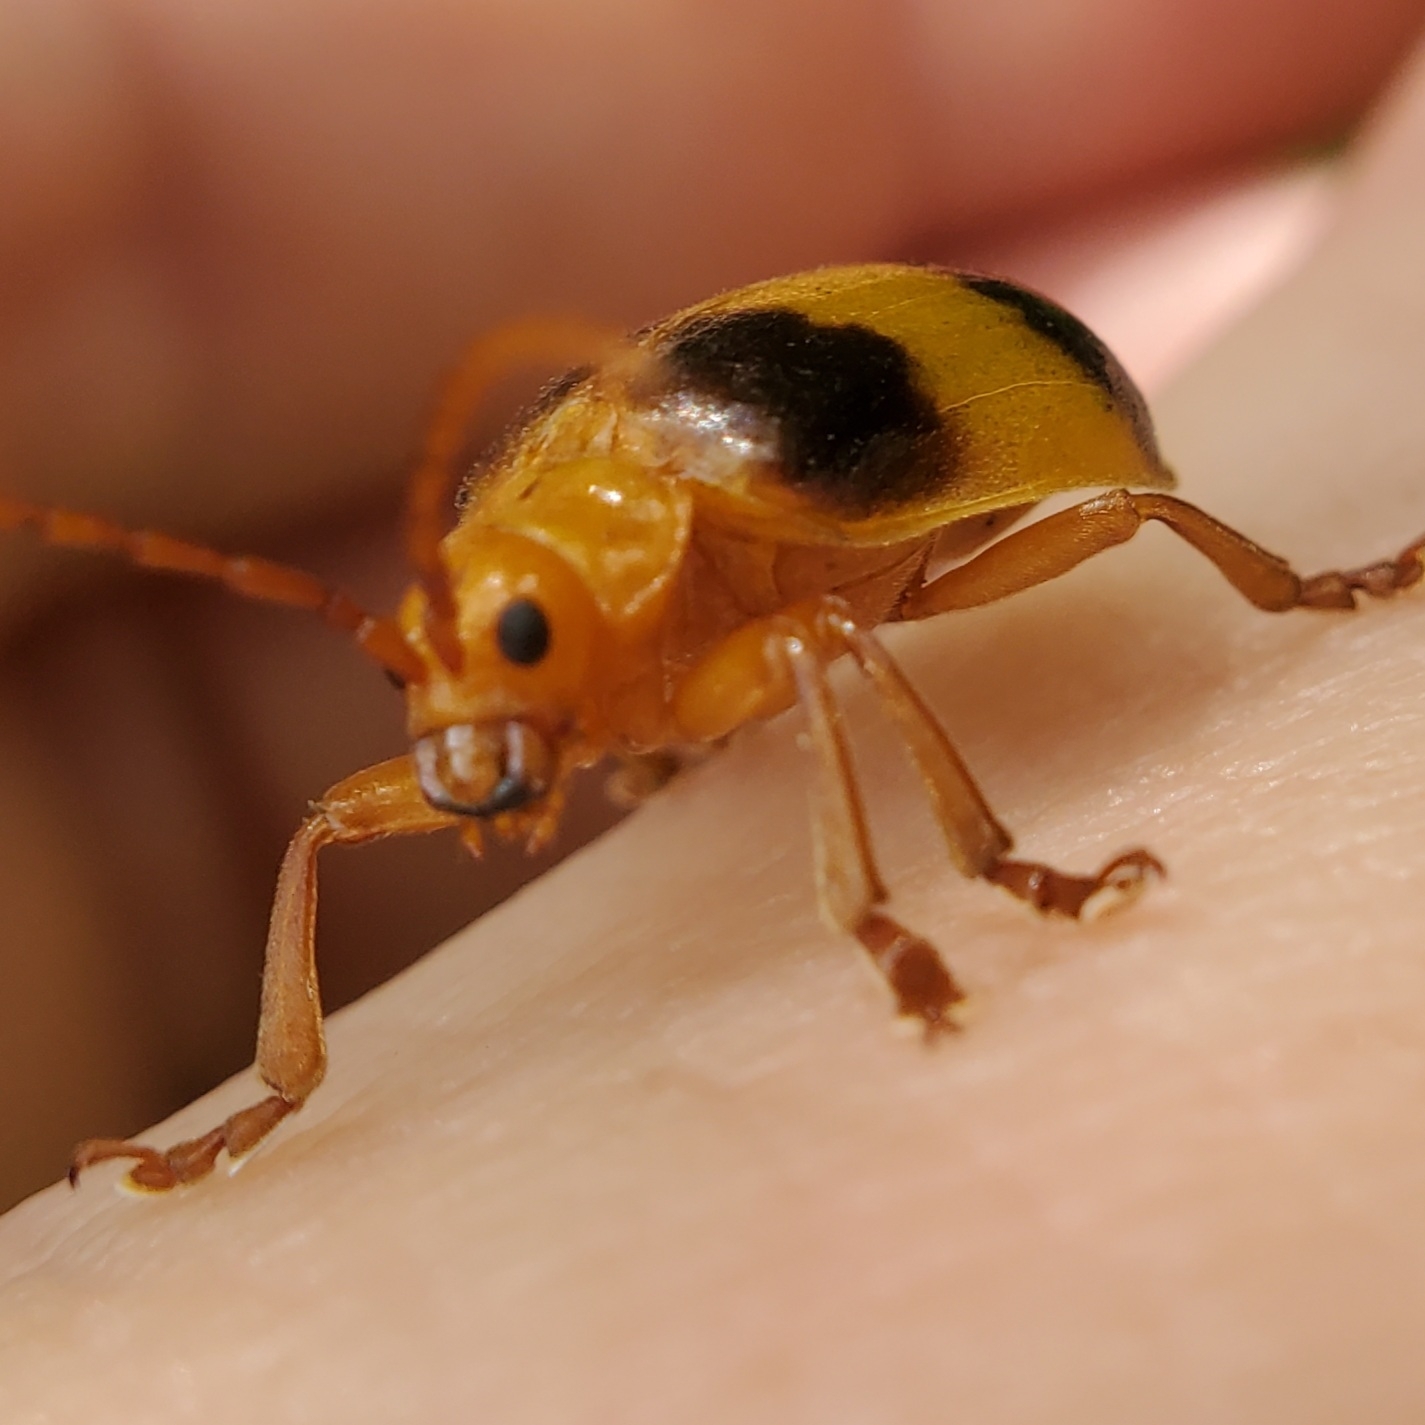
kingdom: Animalia
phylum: Arthropoda
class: Insecta
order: Coleoptera
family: Chrysomelidae
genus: Monocesta
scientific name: Monocesta coryli
